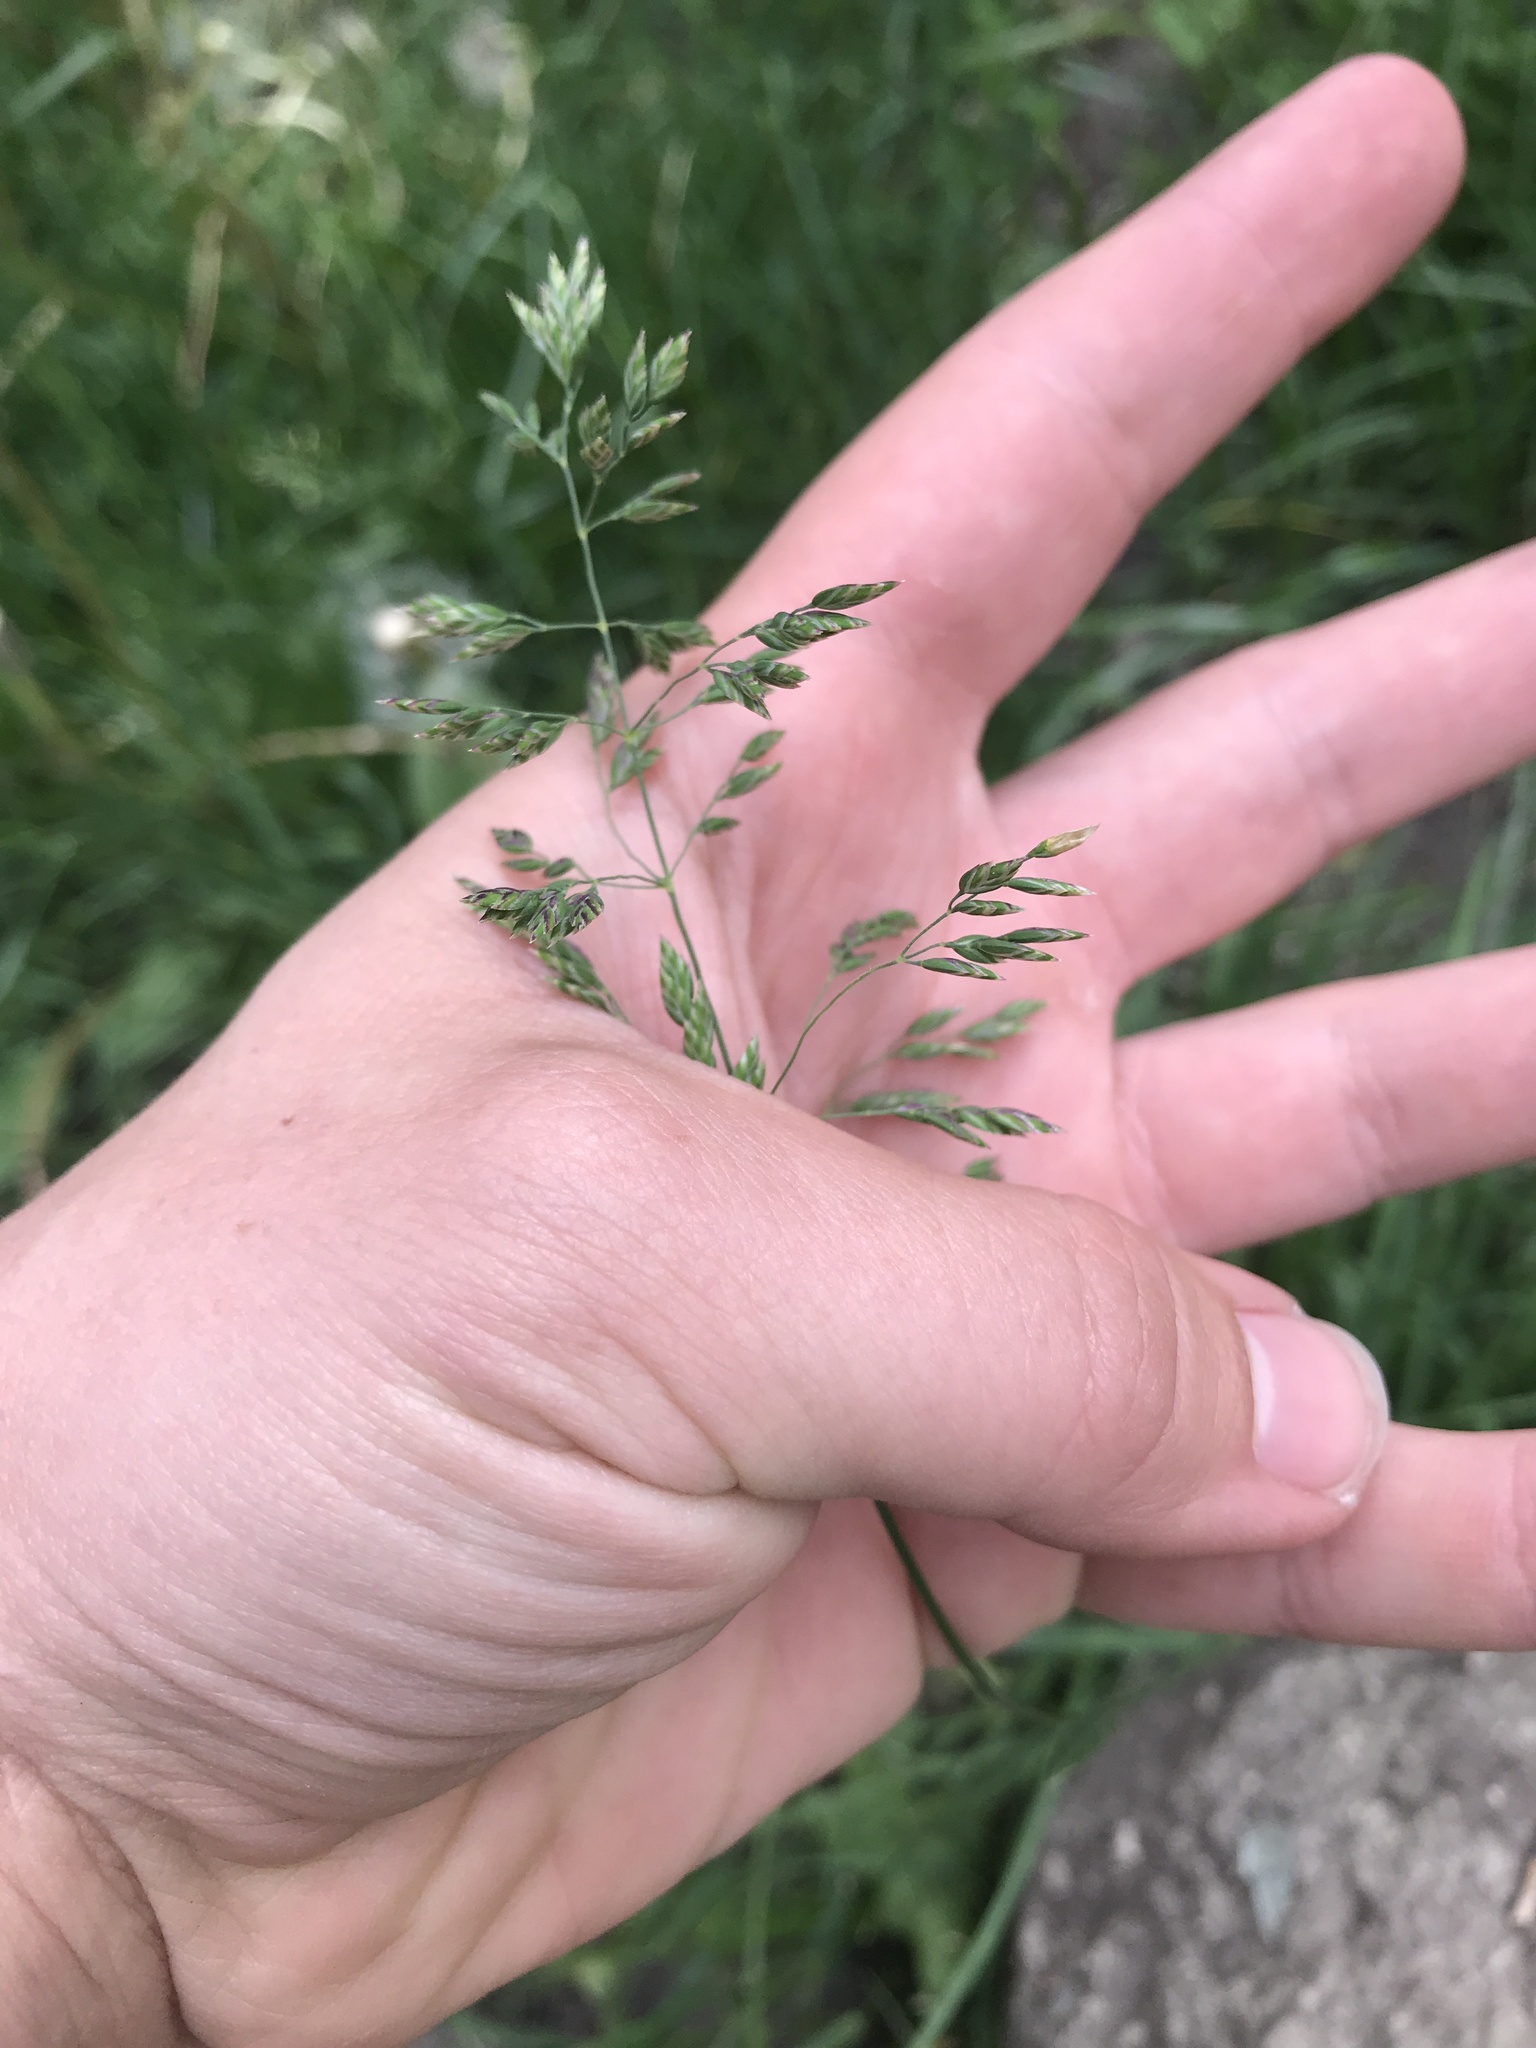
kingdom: Plantae
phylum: Tracheophyta
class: Liliopsida
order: Poales
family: Poaceae
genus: Poa
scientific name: Poa pratensis
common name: Kentucky bluegrass
